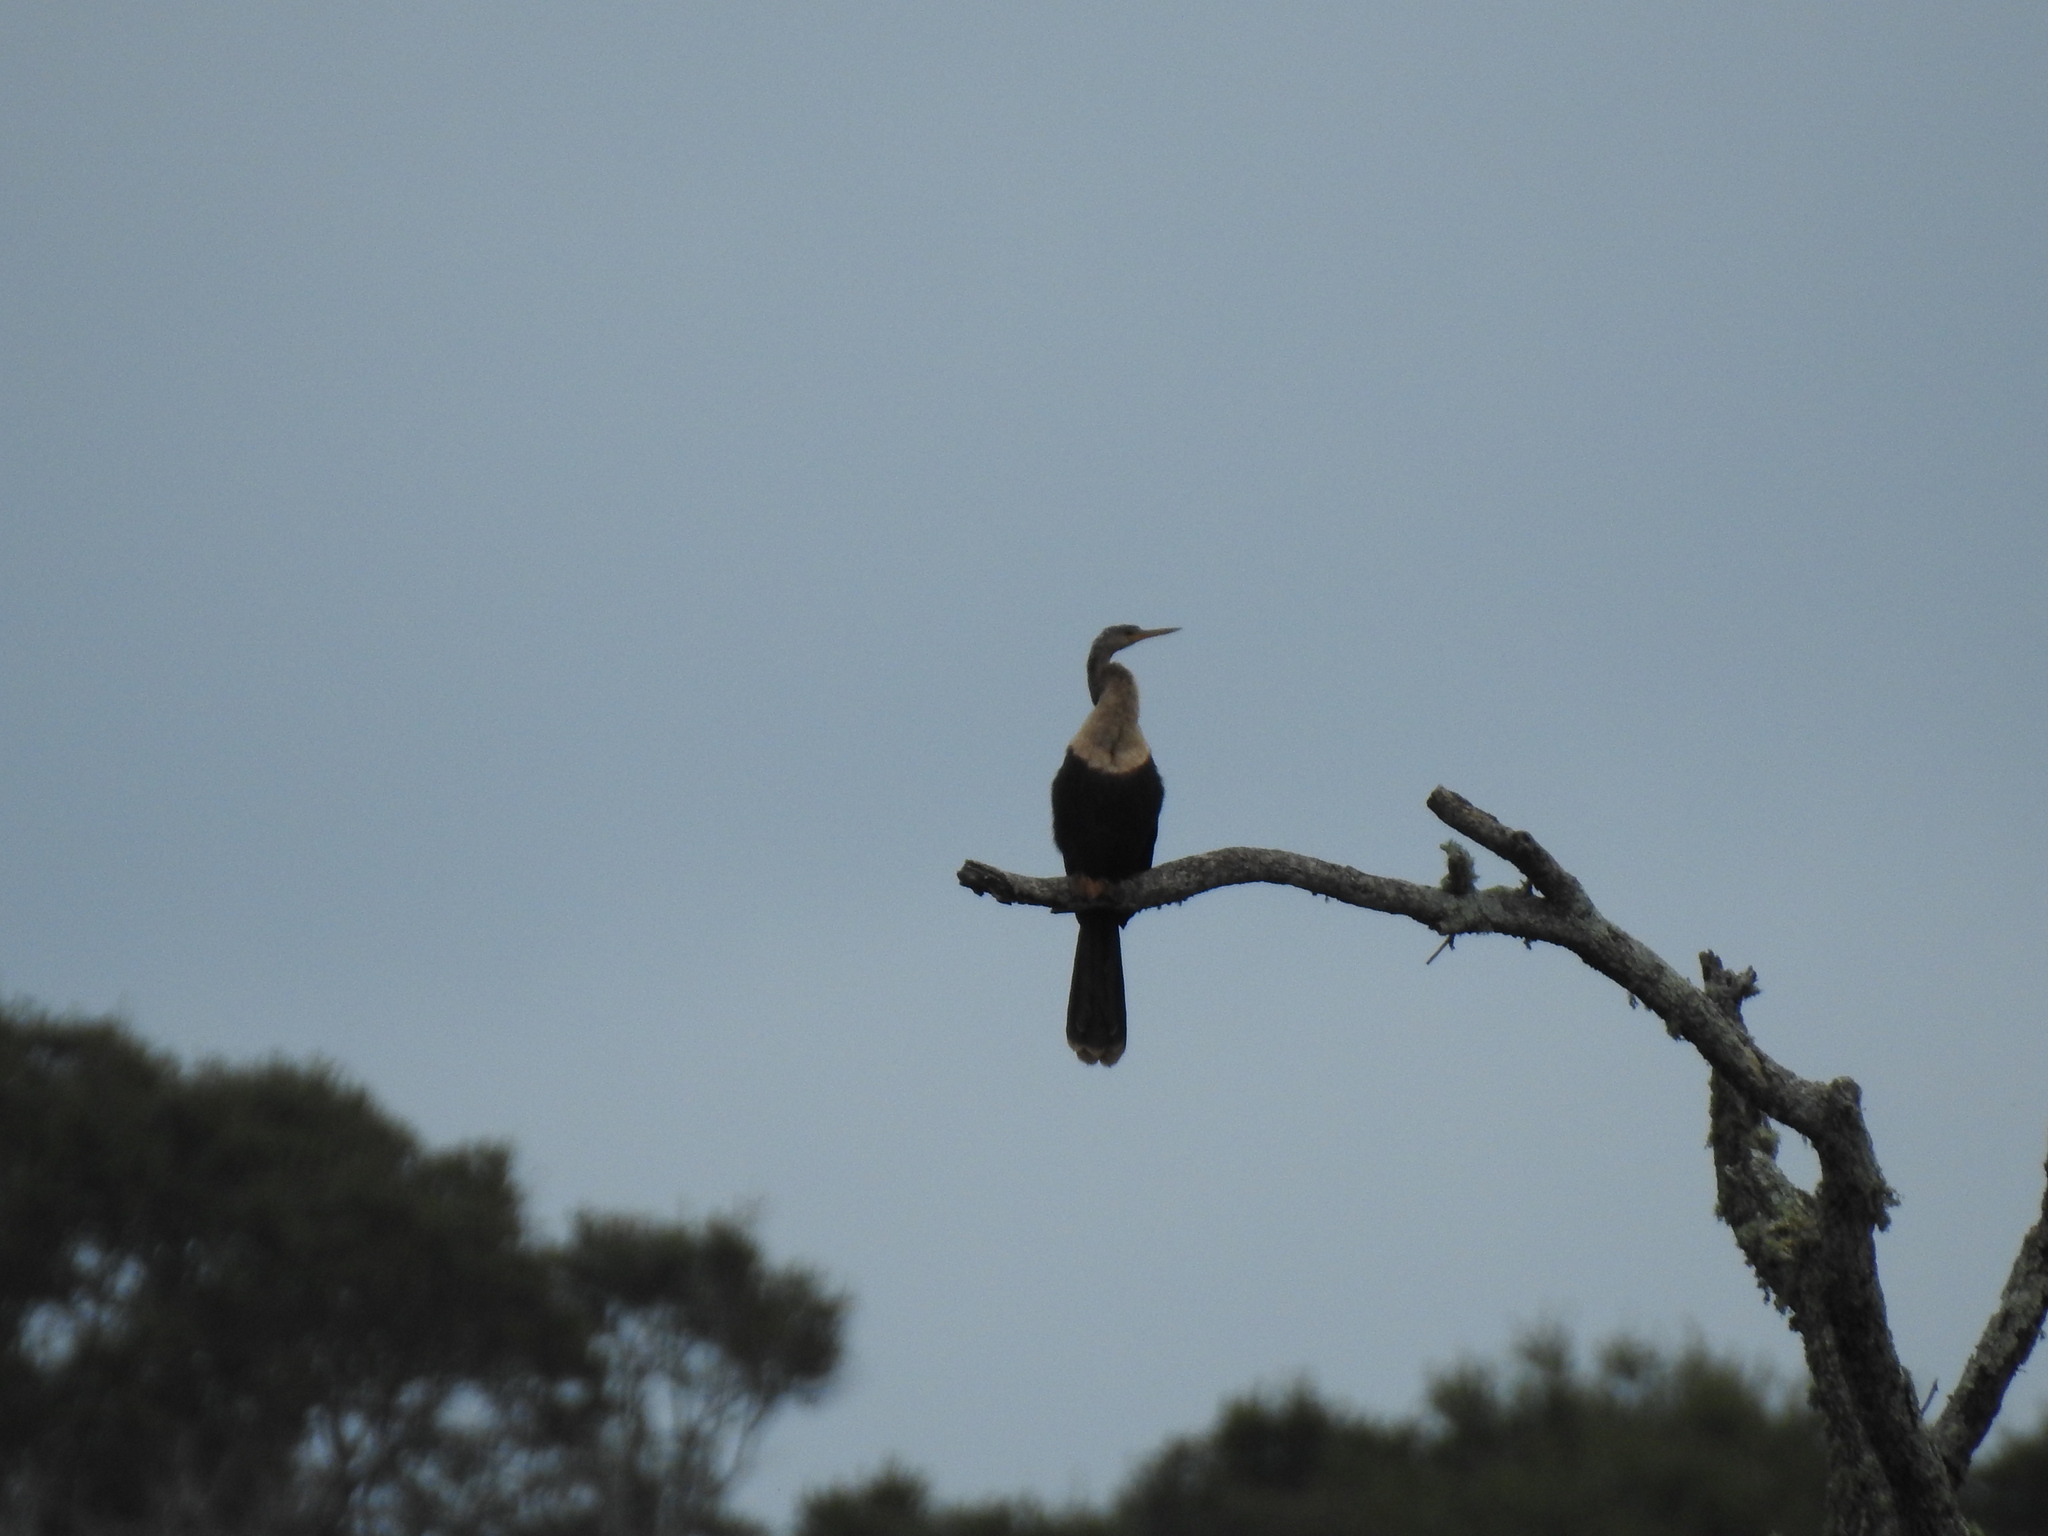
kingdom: Animalia
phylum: Chordata
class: Aves
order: Suliformes
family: Anhingidae
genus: Anhinga
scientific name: Anhinga anhinga
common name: Anhinga
